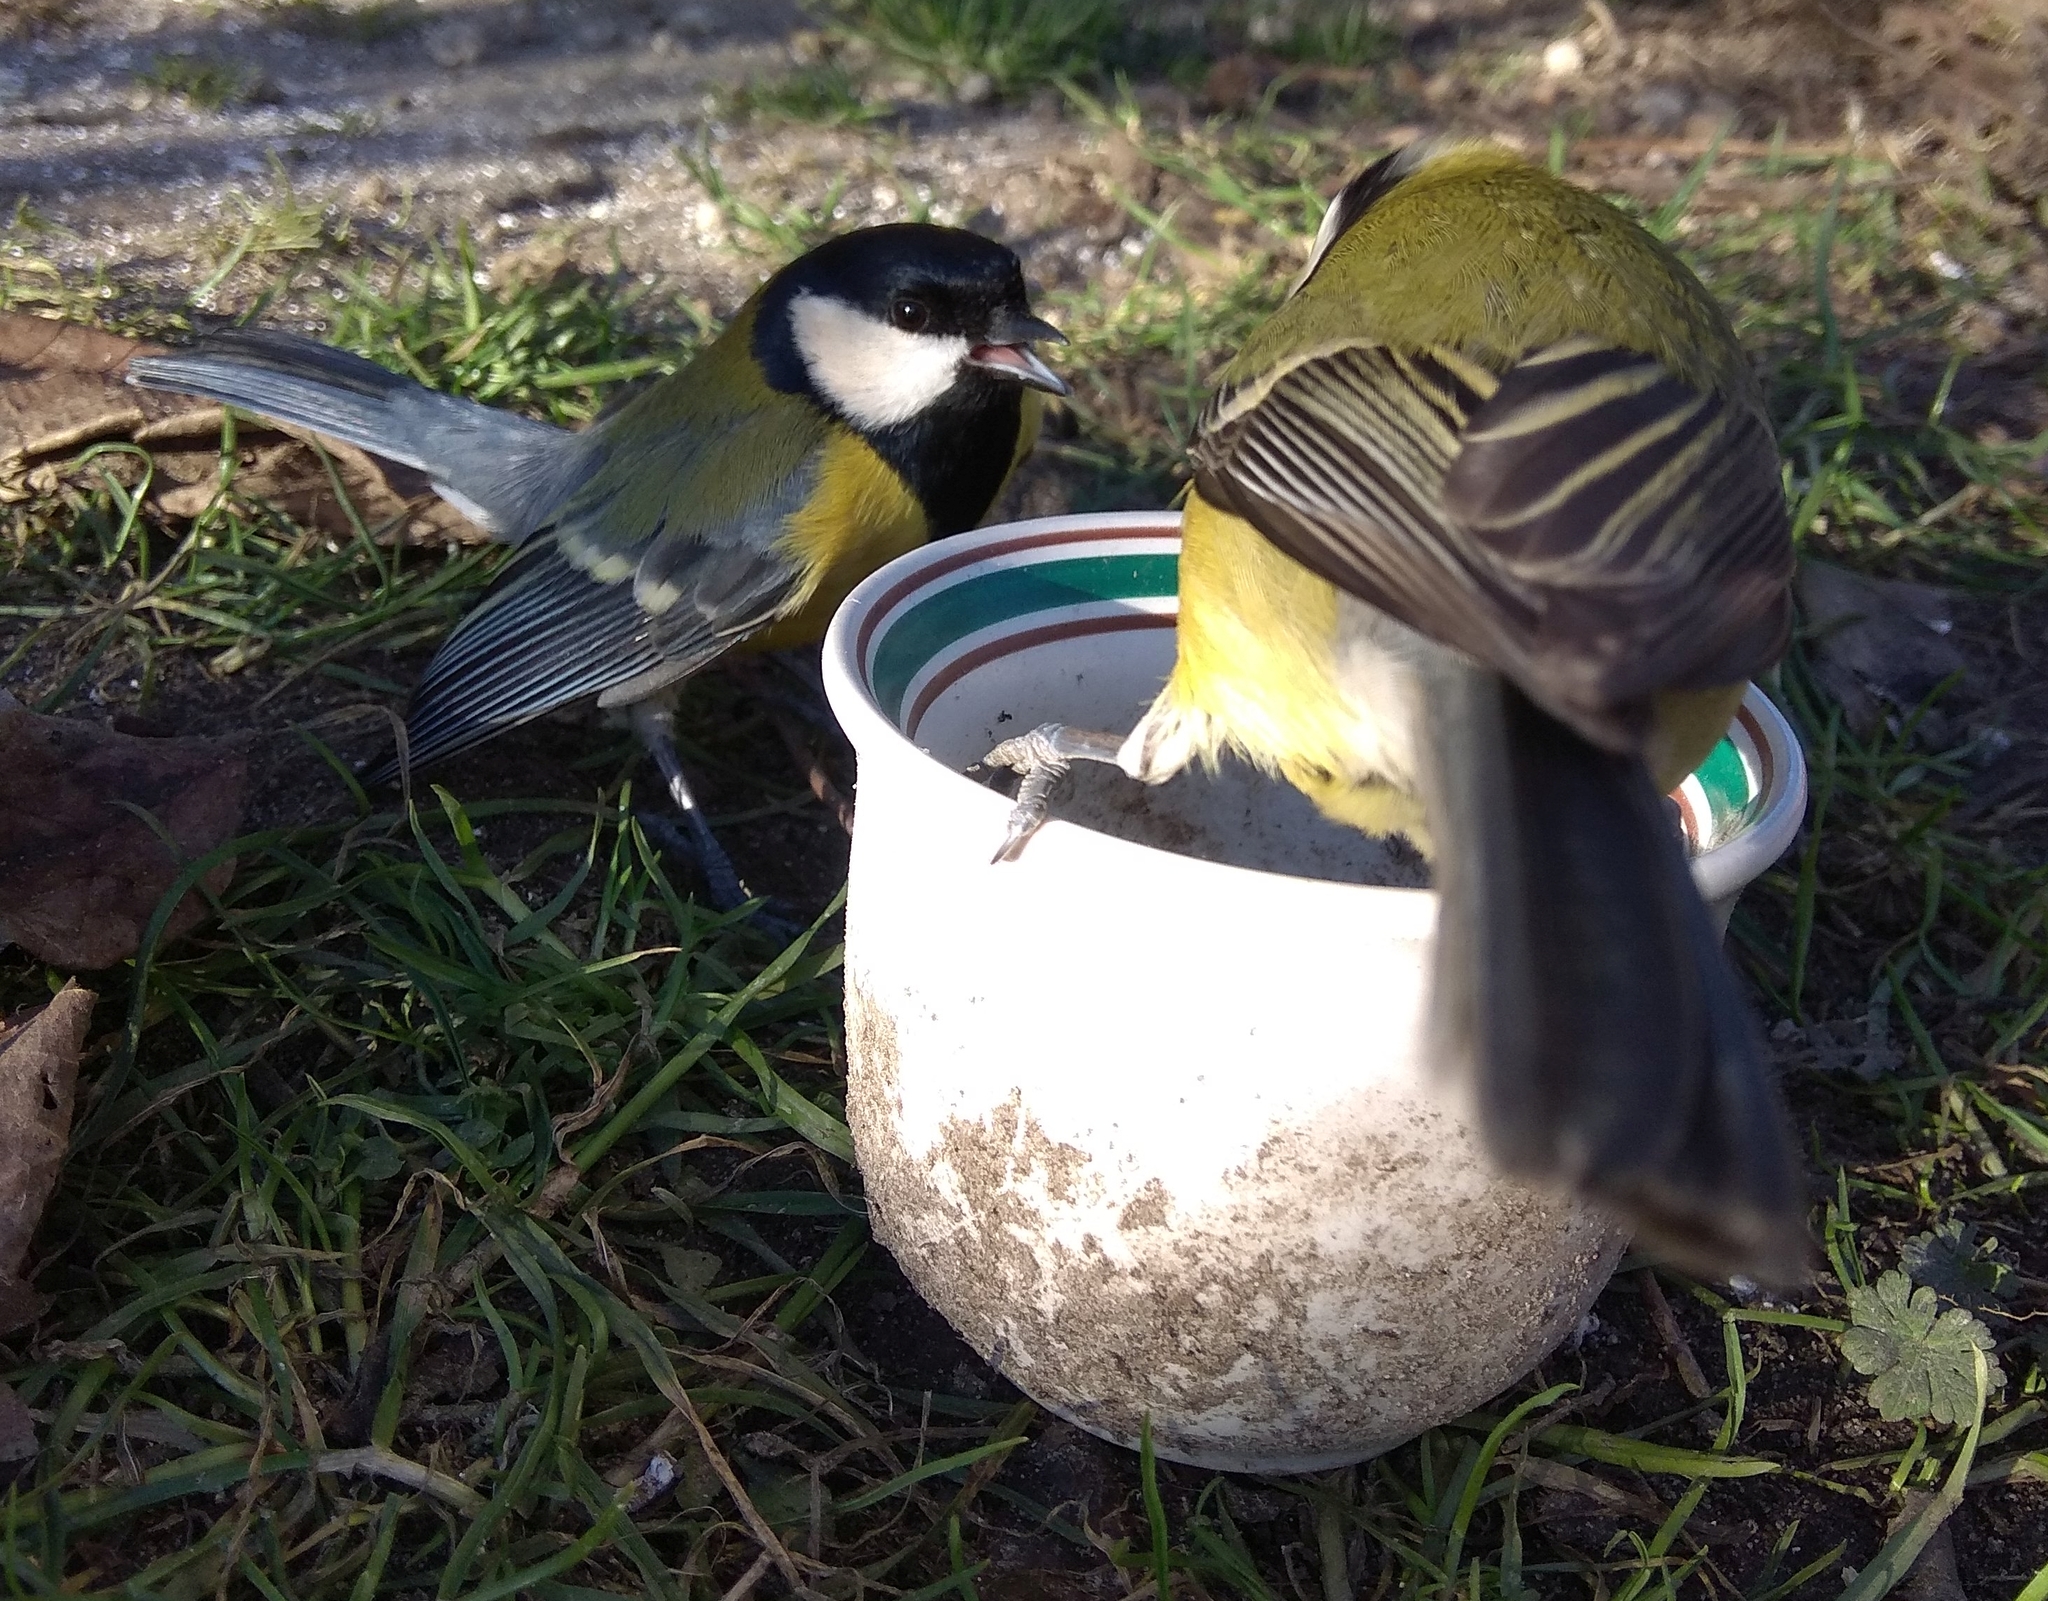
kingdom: Animalia
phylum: Chordata
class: Aves
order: Passeriformes
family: Paridae
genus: Parus
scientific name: Parus major
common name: Great tit
